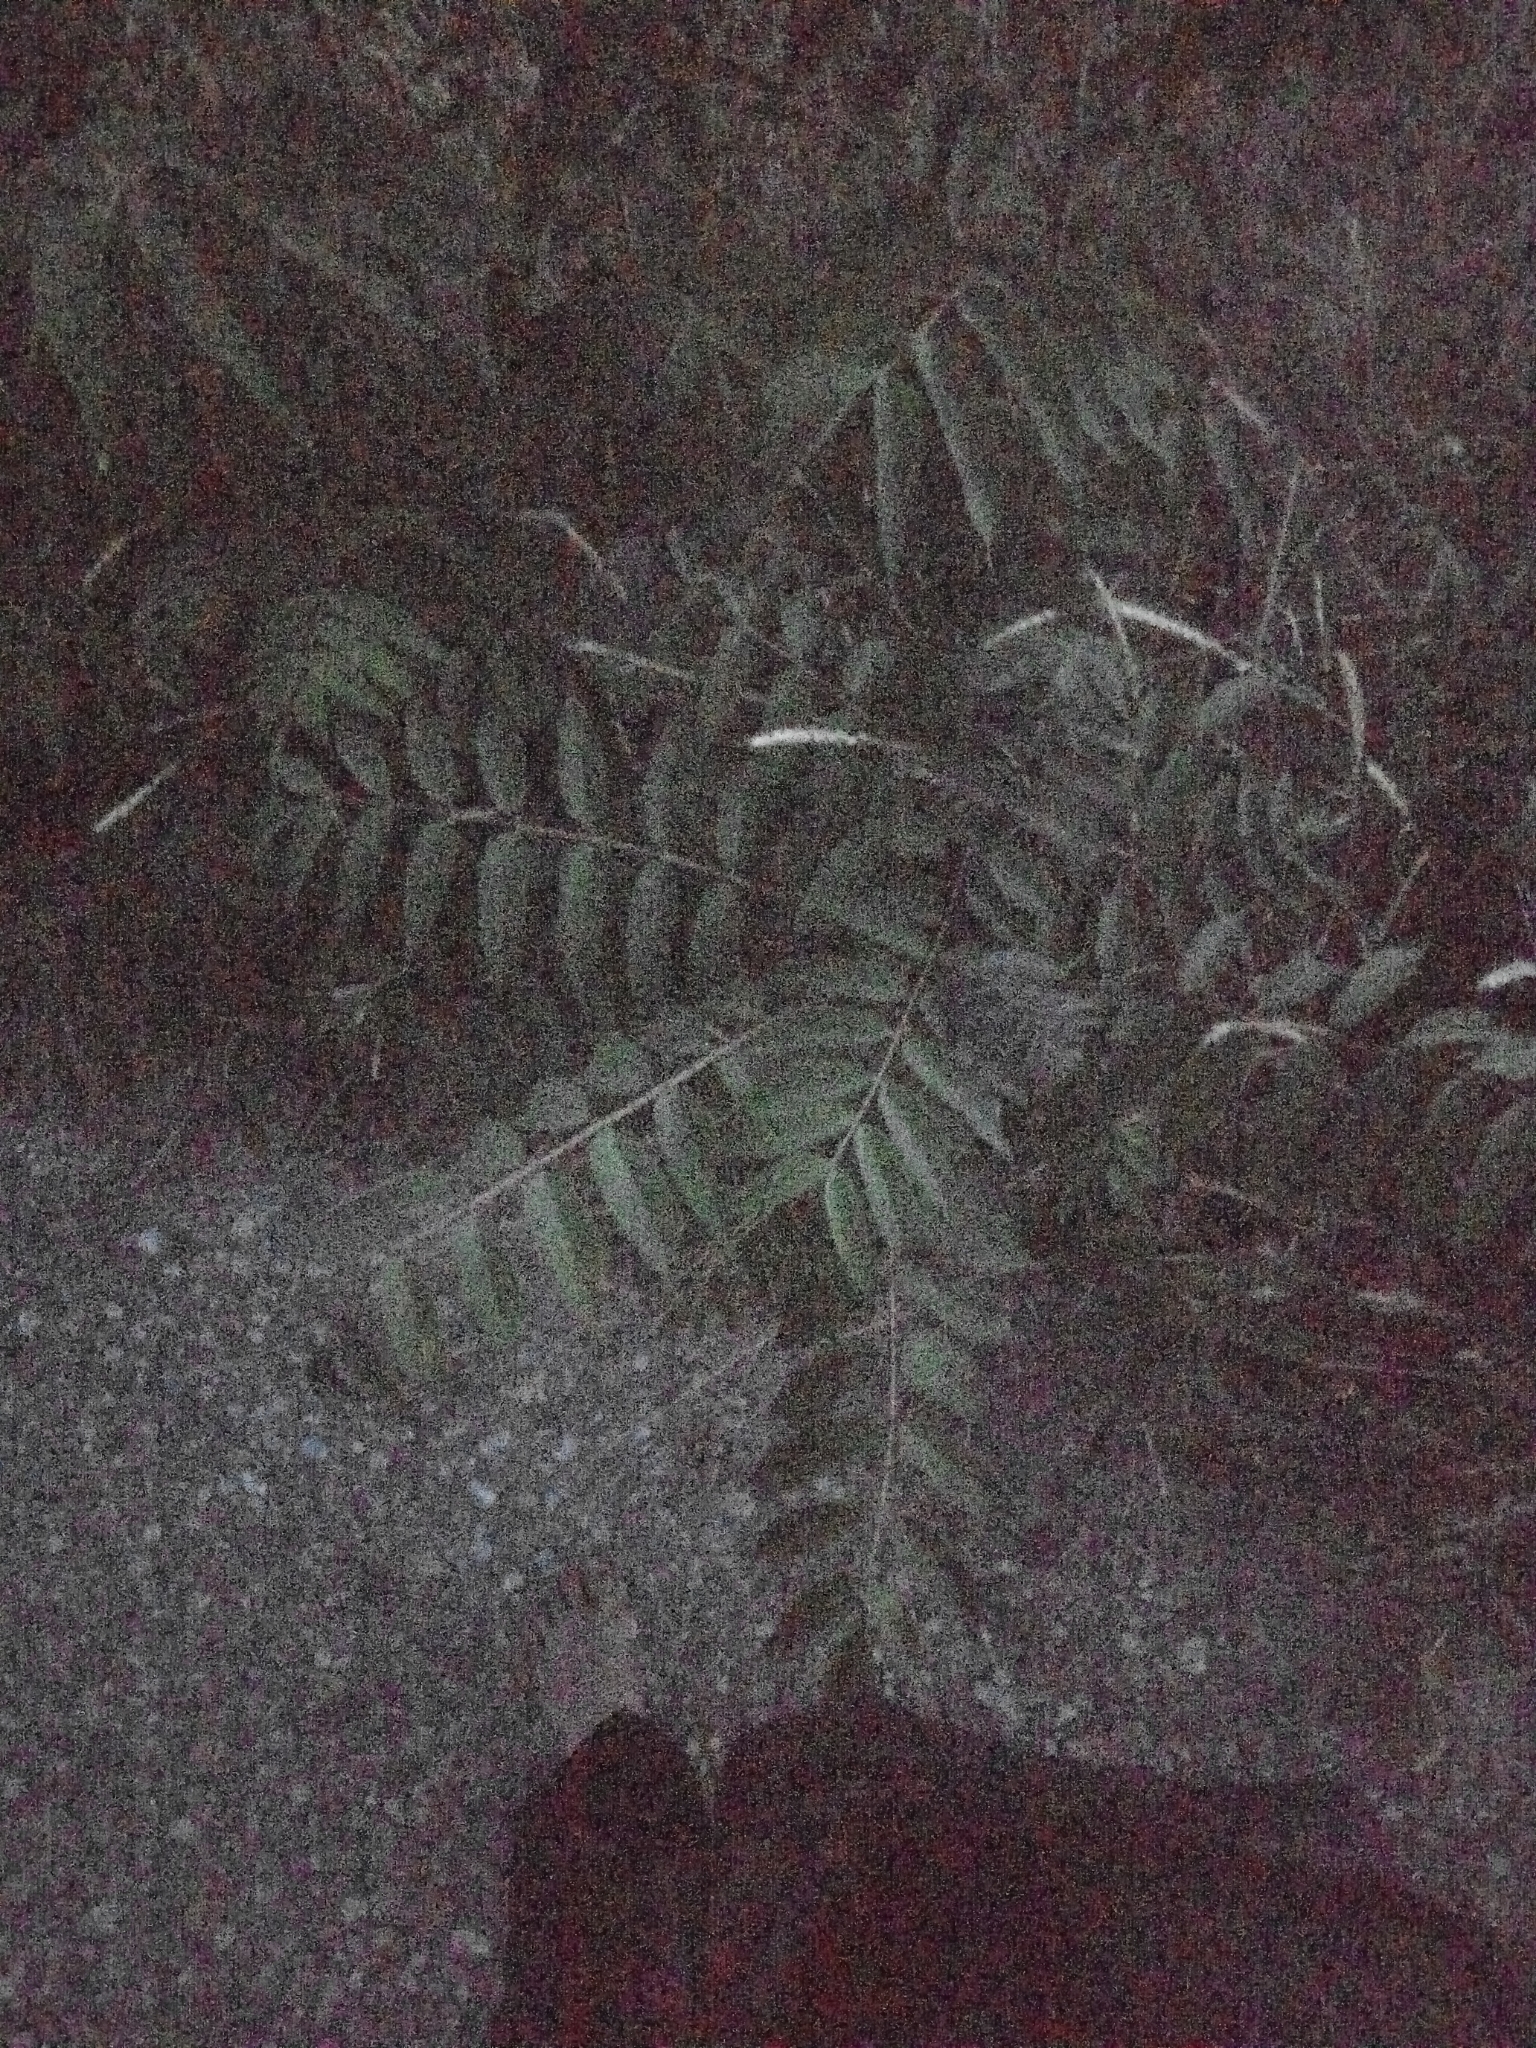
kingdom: Plantae
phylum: Tracheophyta
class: Magnoliopsida
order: Sapindales
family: Simaroubaceae
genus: Ailanthus
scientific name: Ailanthus altissima
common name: Tree-of-heaven
